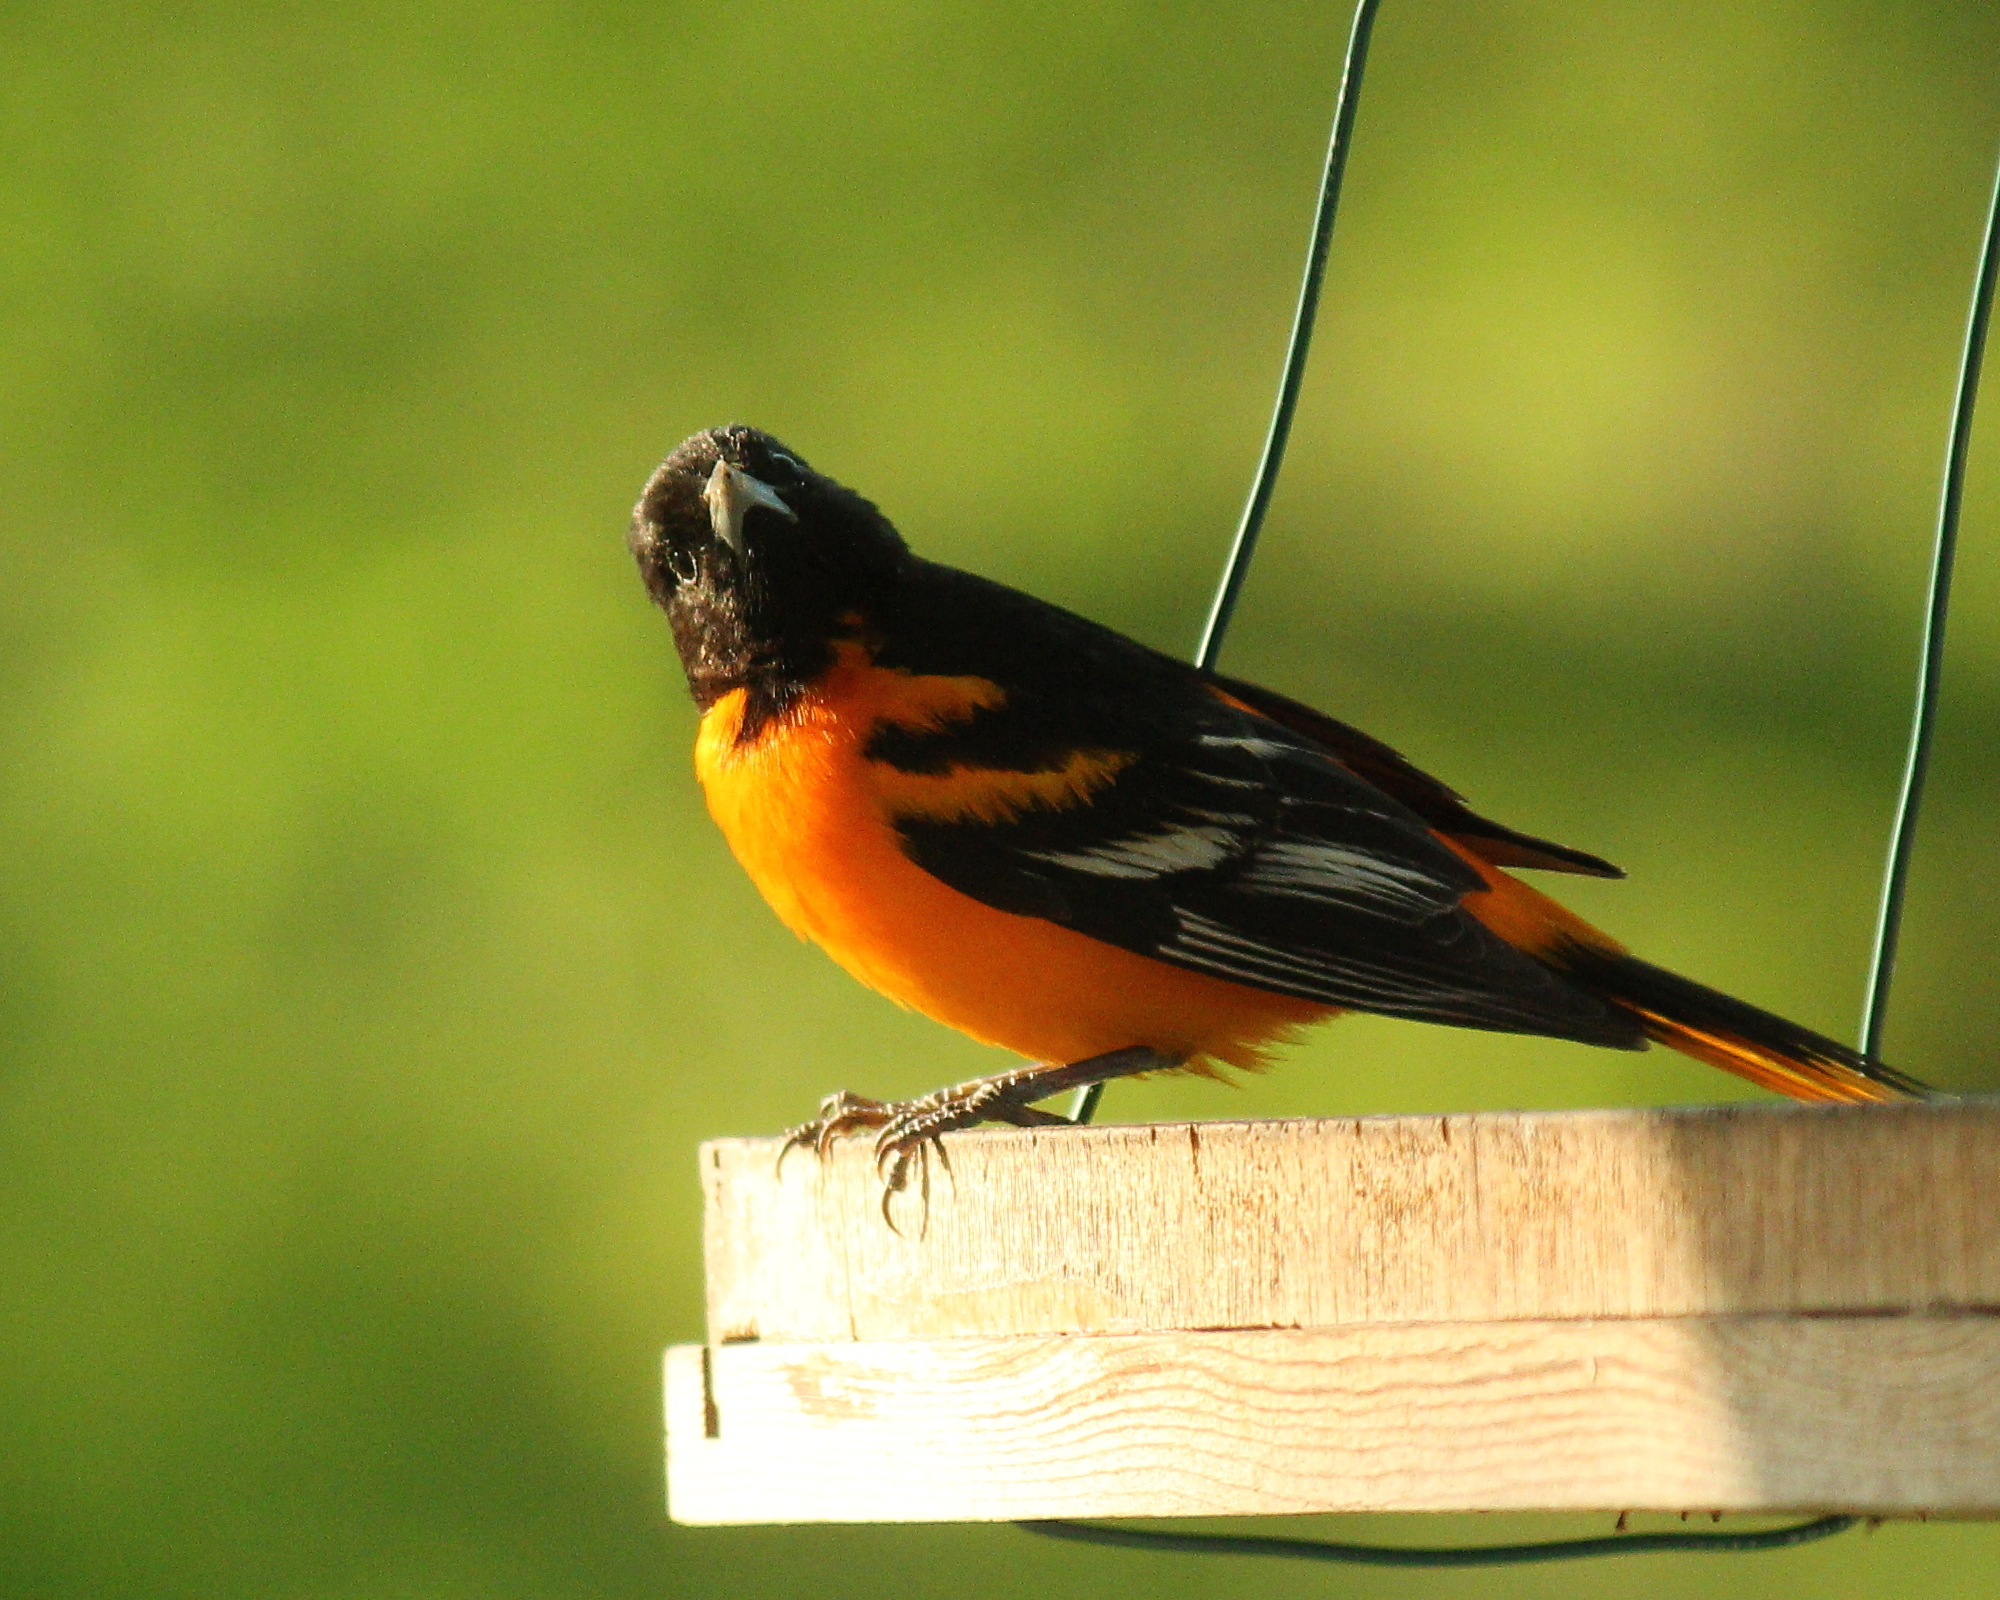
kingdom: Animalia
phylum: Chordata
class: Aves
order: Passeriformes
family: Icteridae
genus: Icterus
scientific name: Icterus galbula
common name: Baltimore oriole
